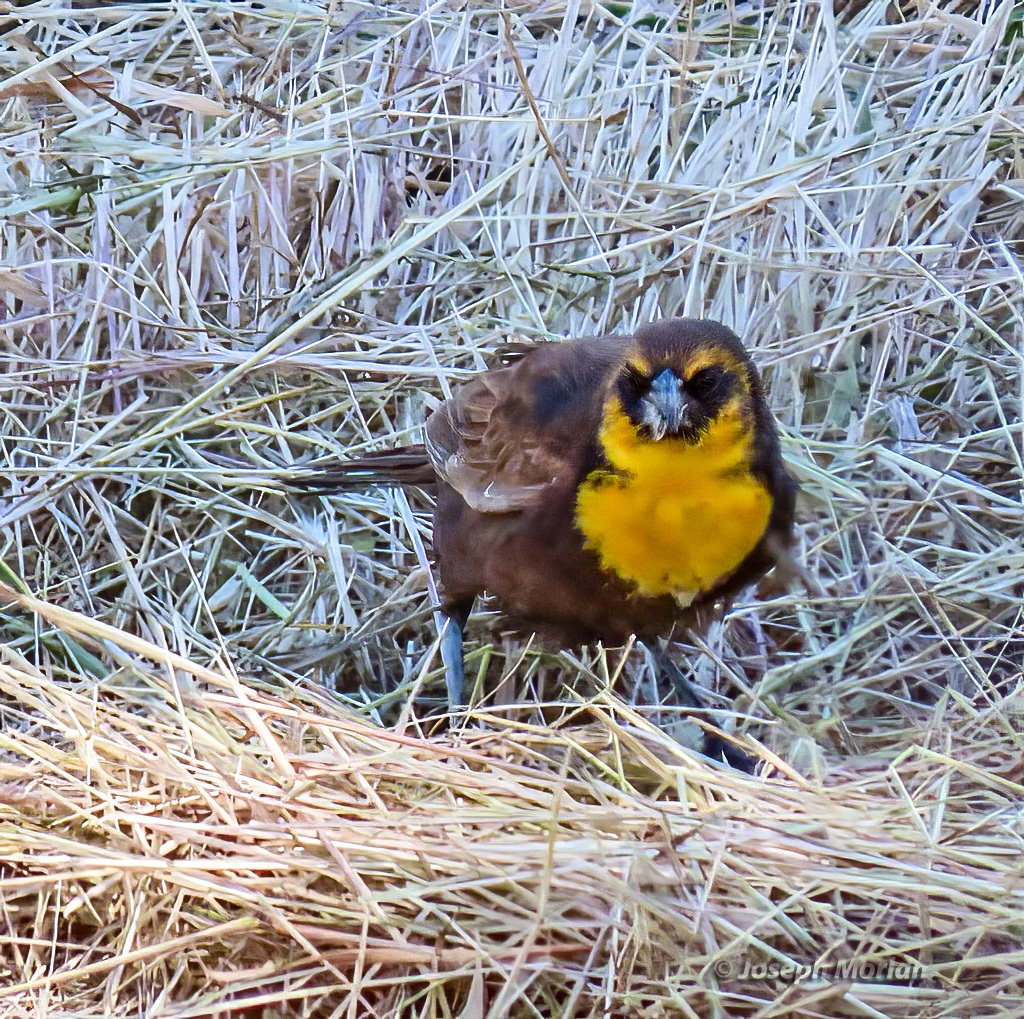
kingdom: Animalia
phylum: Chordata
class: Aves
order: Passeriformes
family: Icteridae
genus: Xanthocephalus
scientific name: Xanthocephalus xanthocephalus
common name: Yellow-headed blackbird
